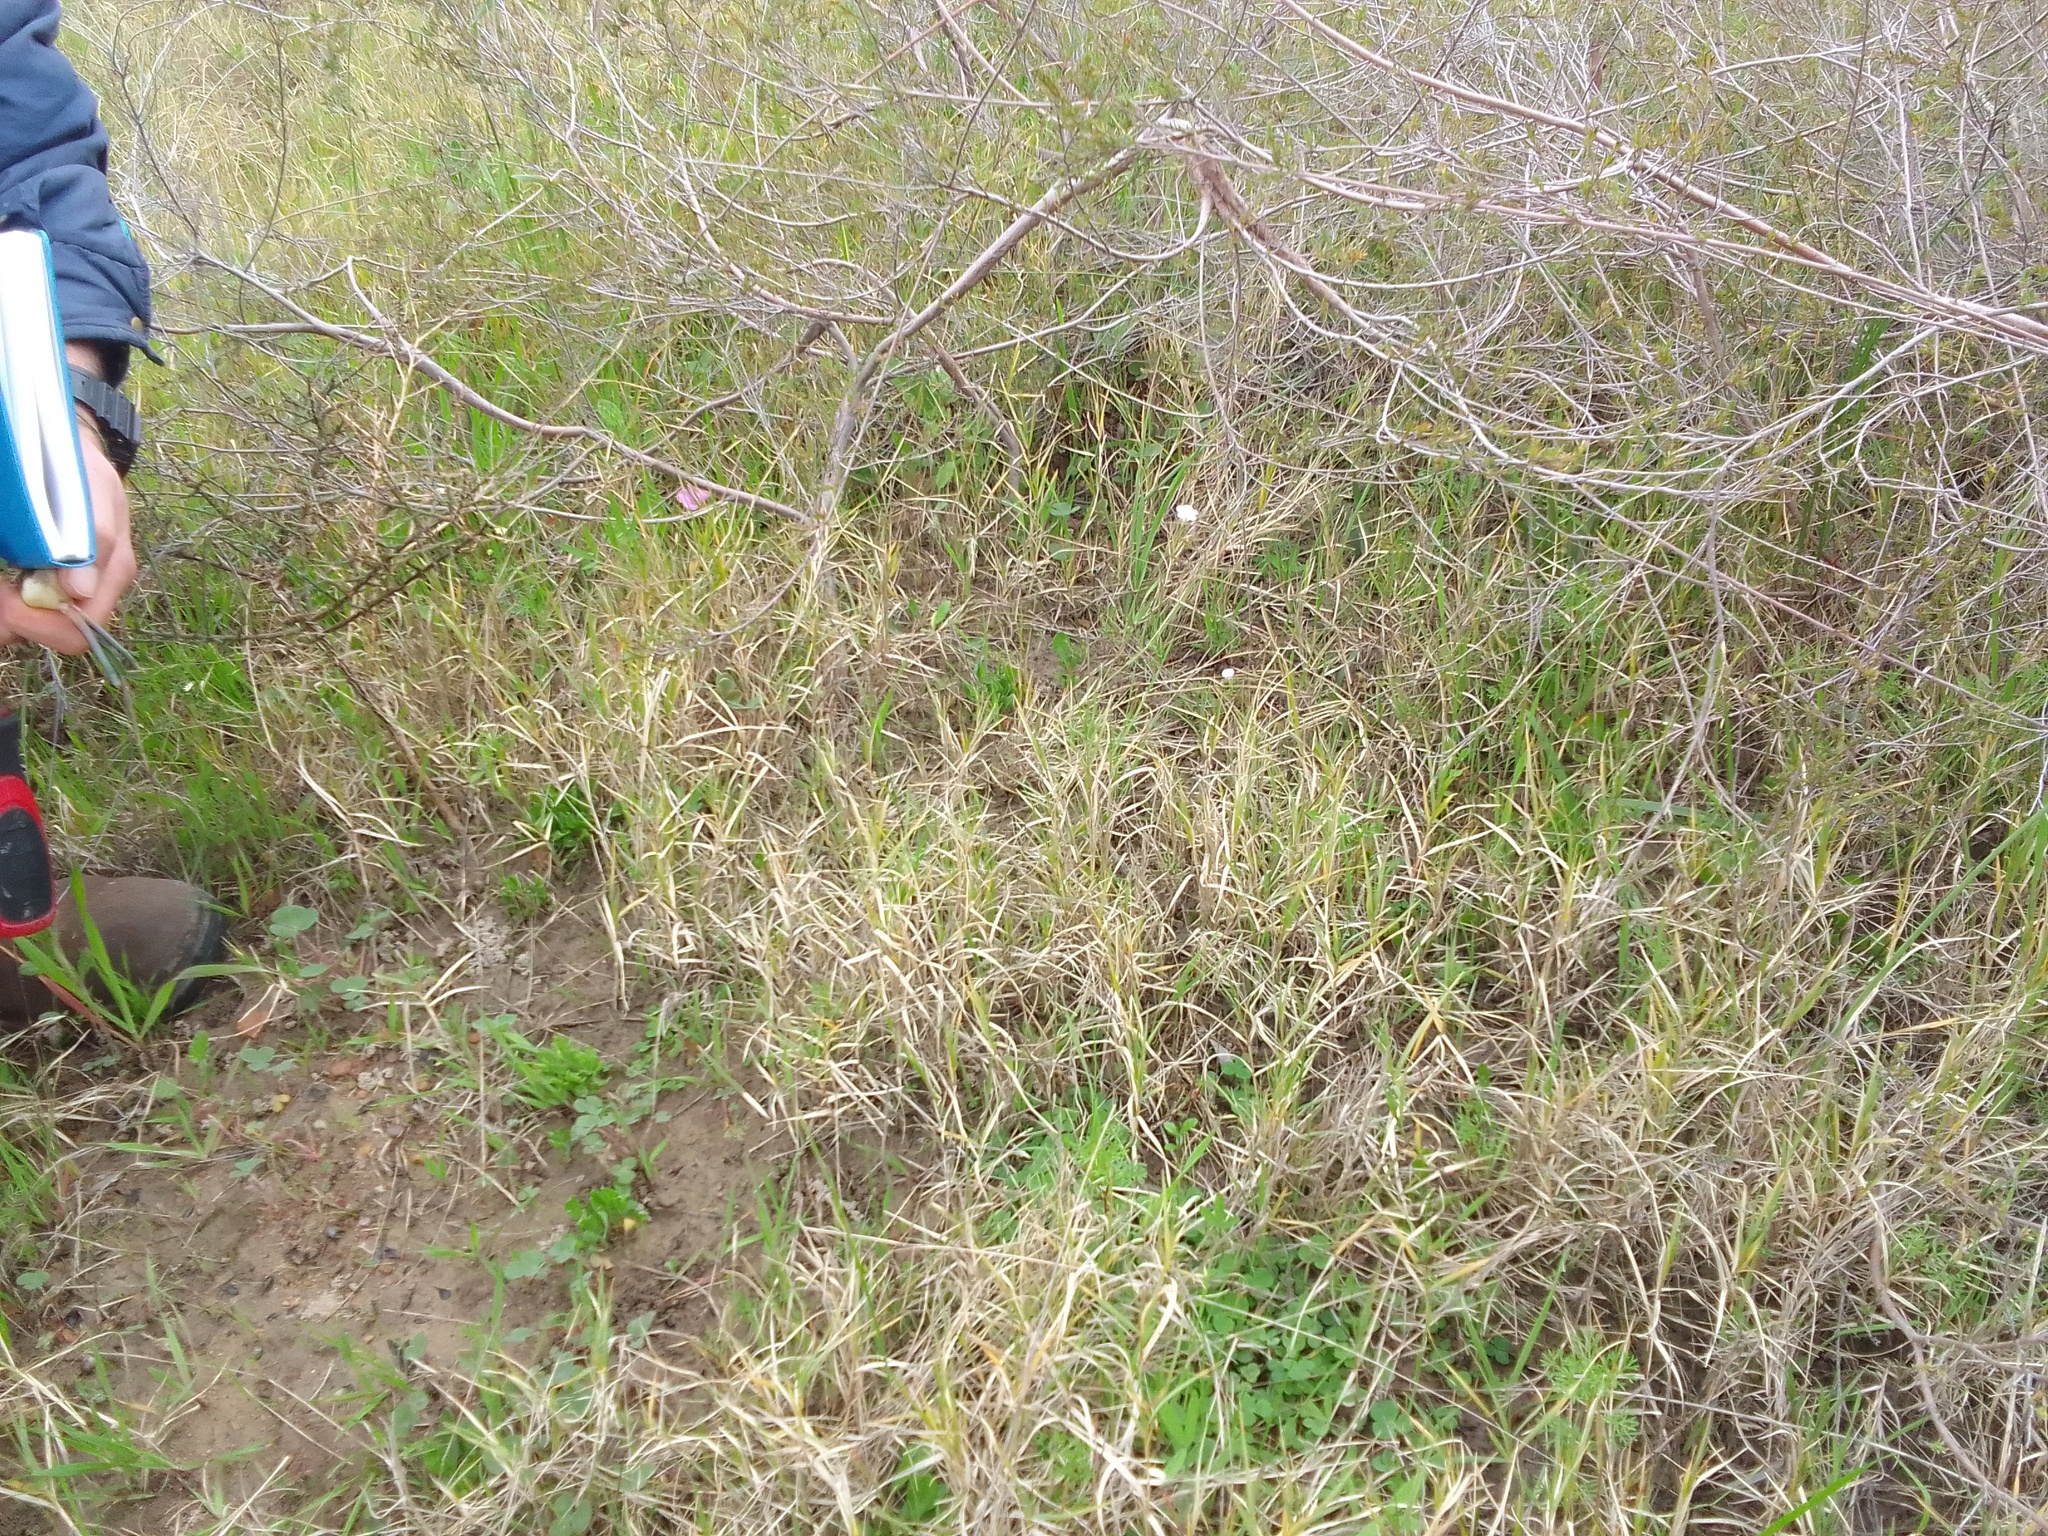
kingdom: Plantae
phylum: Tracheophyta
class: Magnoliopsida
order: Oxalidales
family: Oxalidaceae
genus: Oxalis
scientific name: Oxalis purpurea
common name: Purple woodsorrel
